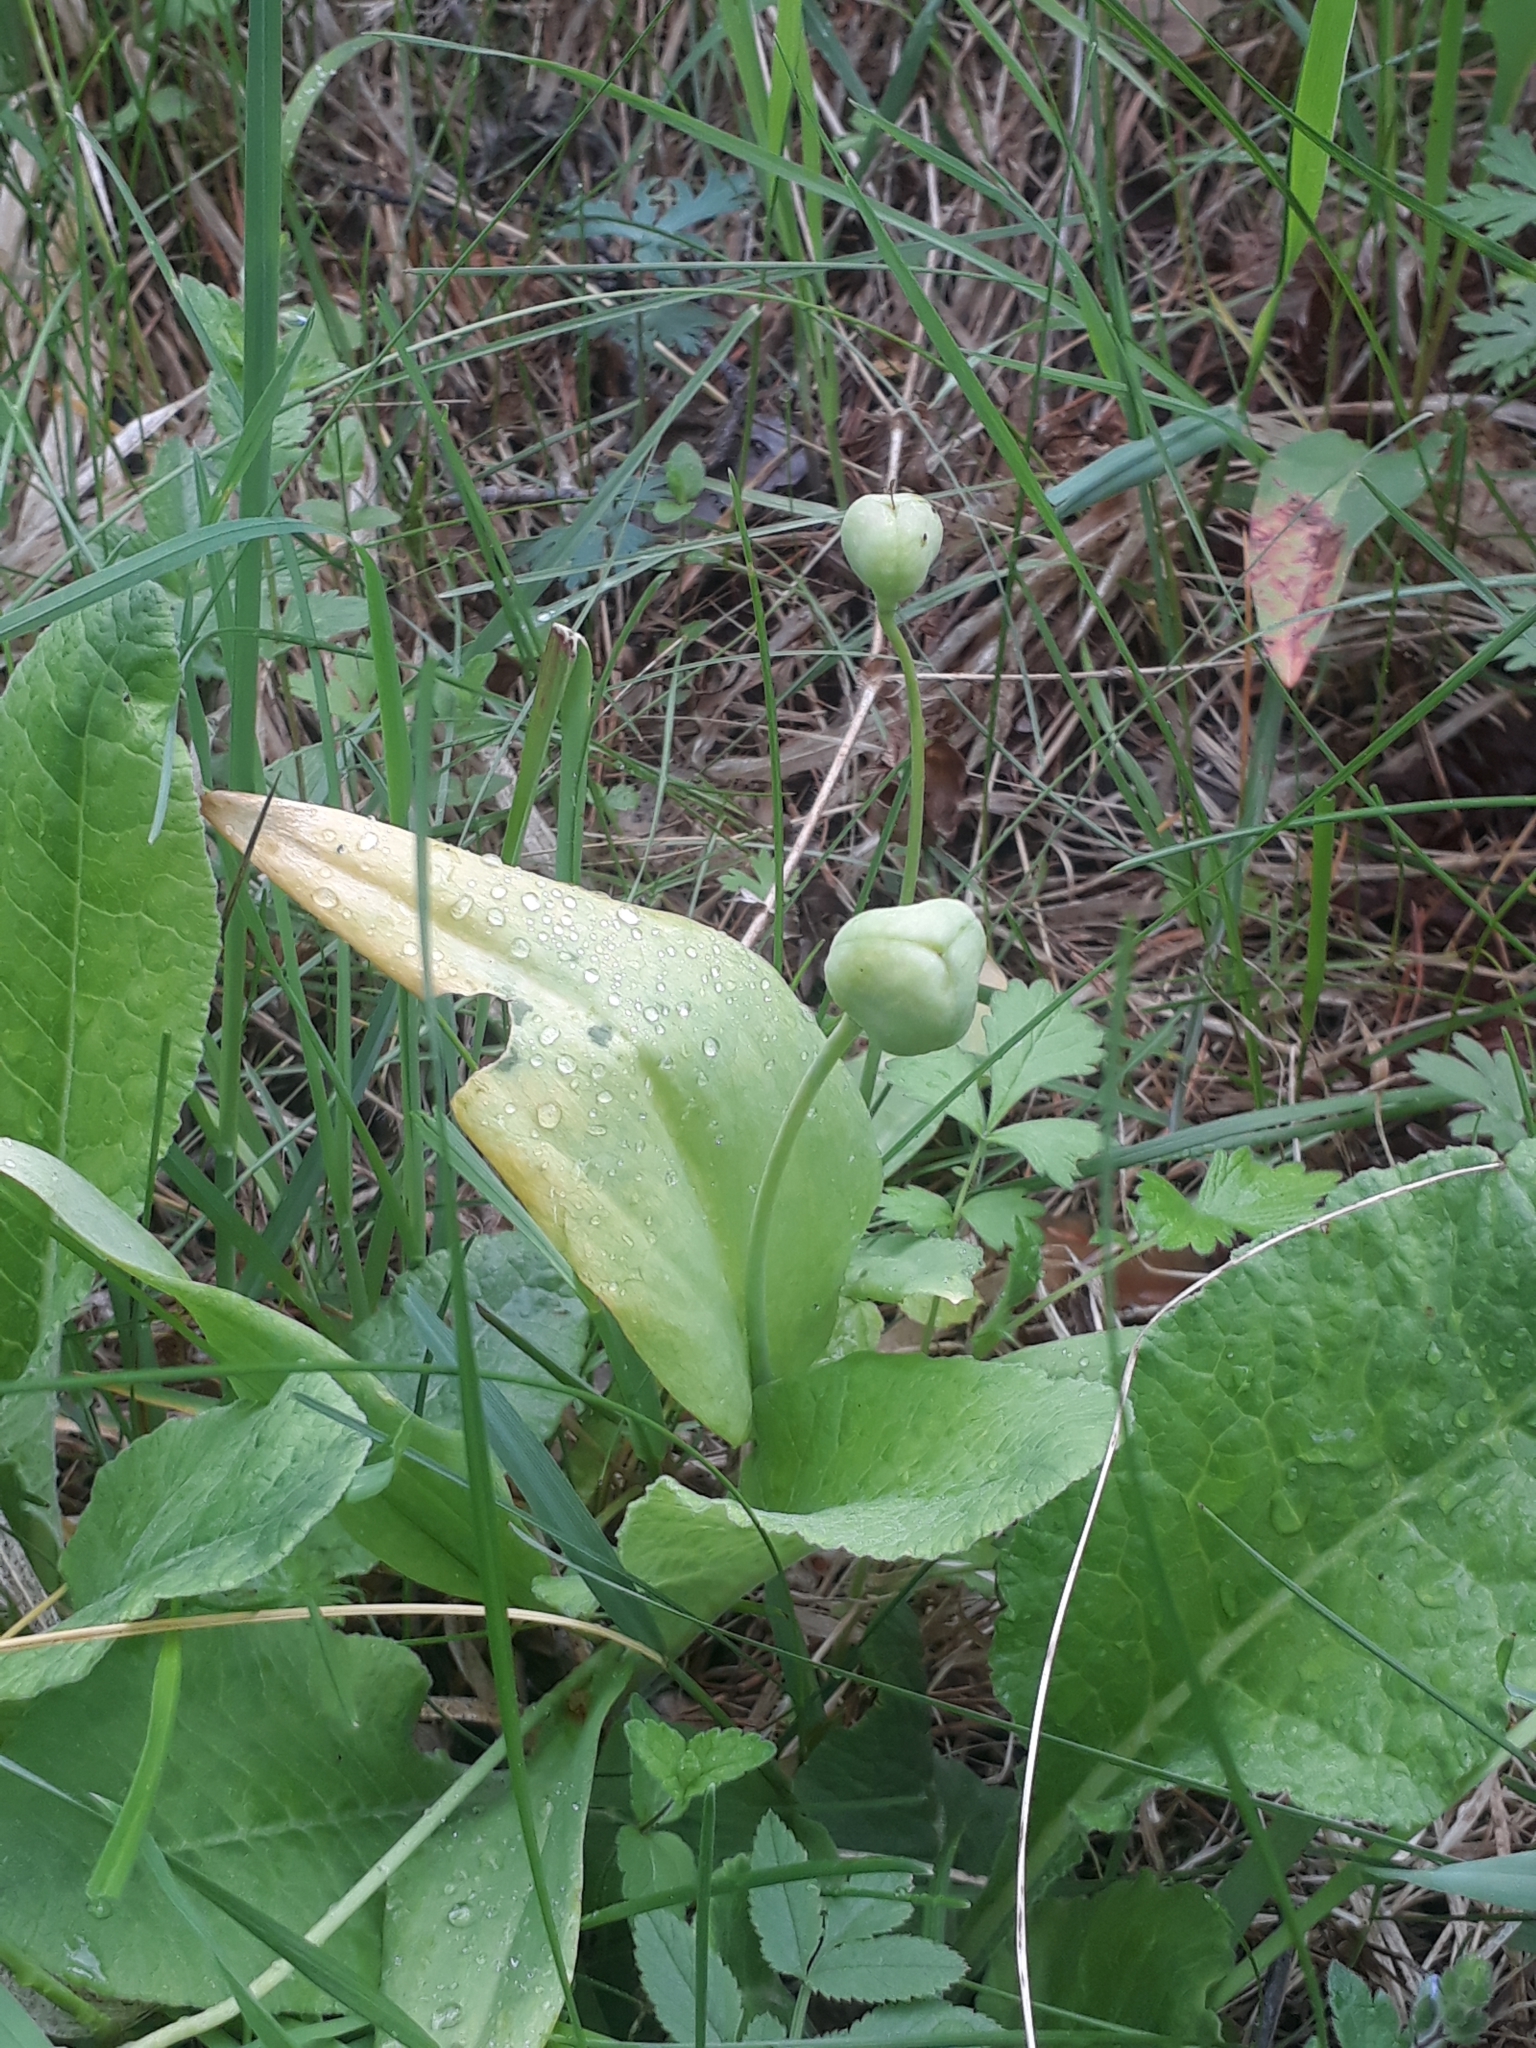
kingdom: Plantae
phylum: Tracheophyta
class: Liliopsida
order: Liliales
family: Liliaceae
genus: Erythronium
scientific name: Erythronium sibiricum
